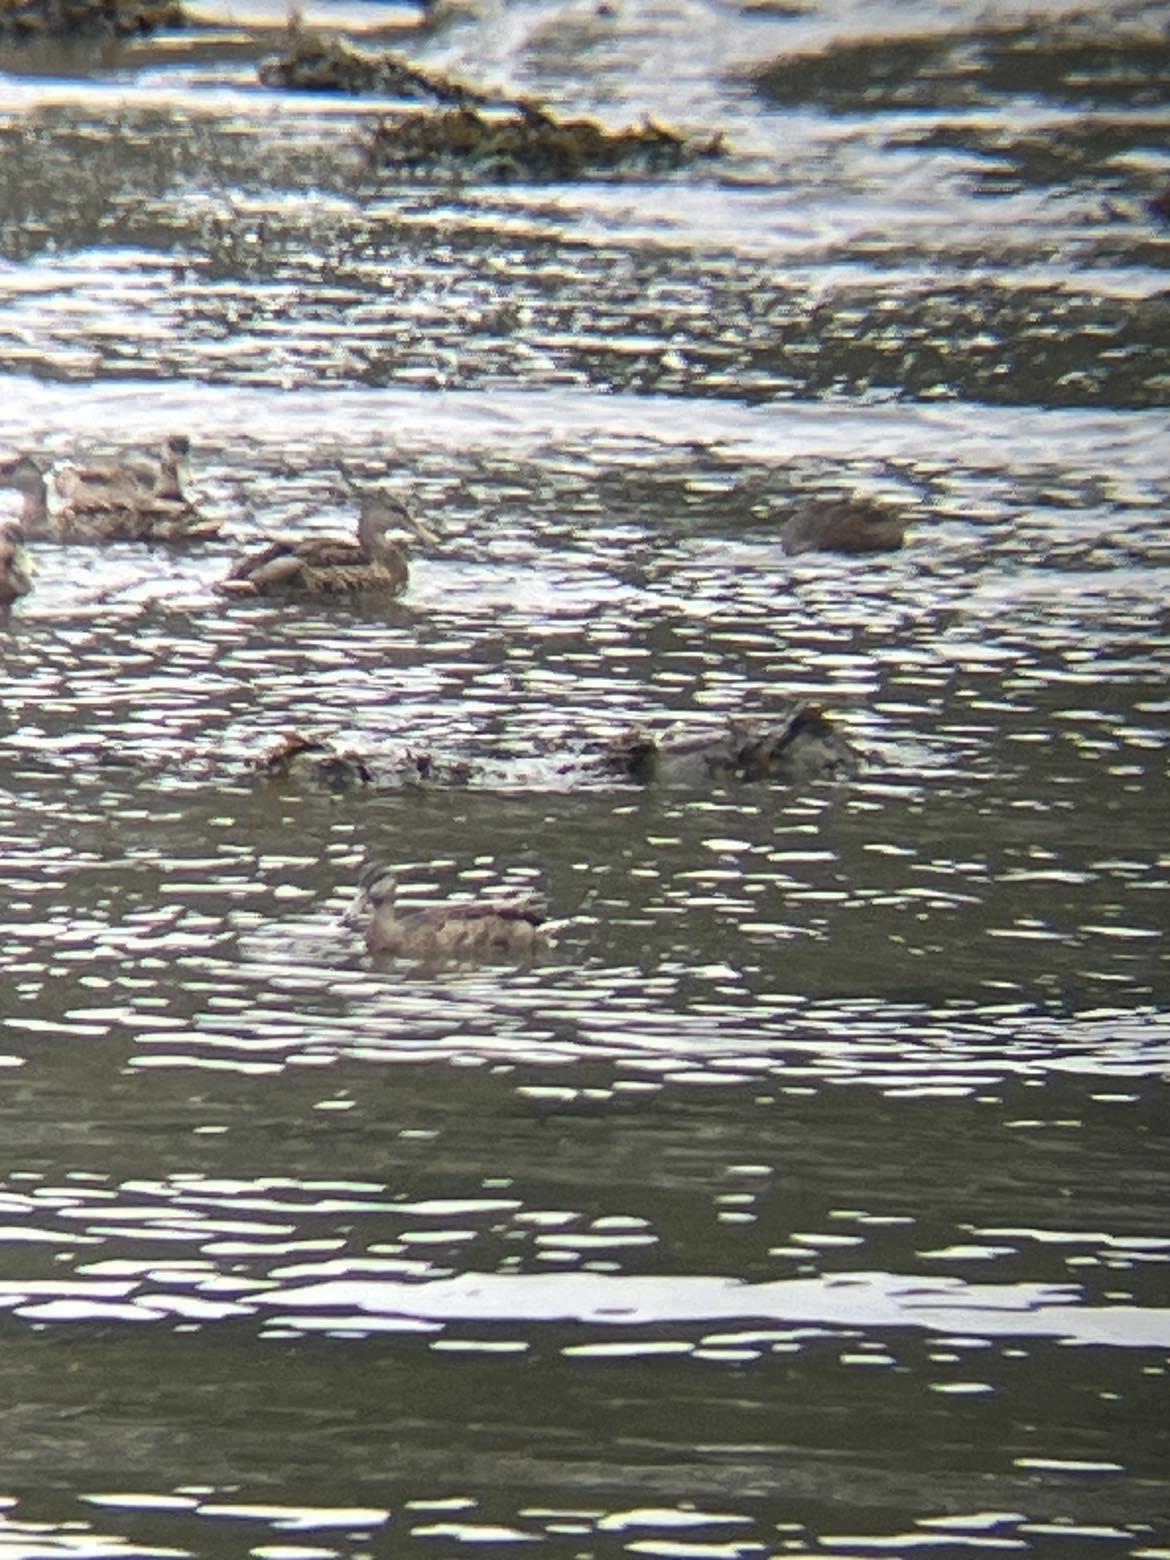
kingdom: Animalia
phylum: Chordata
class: Aves
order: Anseriformes
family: Anatidae
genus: Anas
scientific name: Anas platyrhynchos
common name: Mallard
